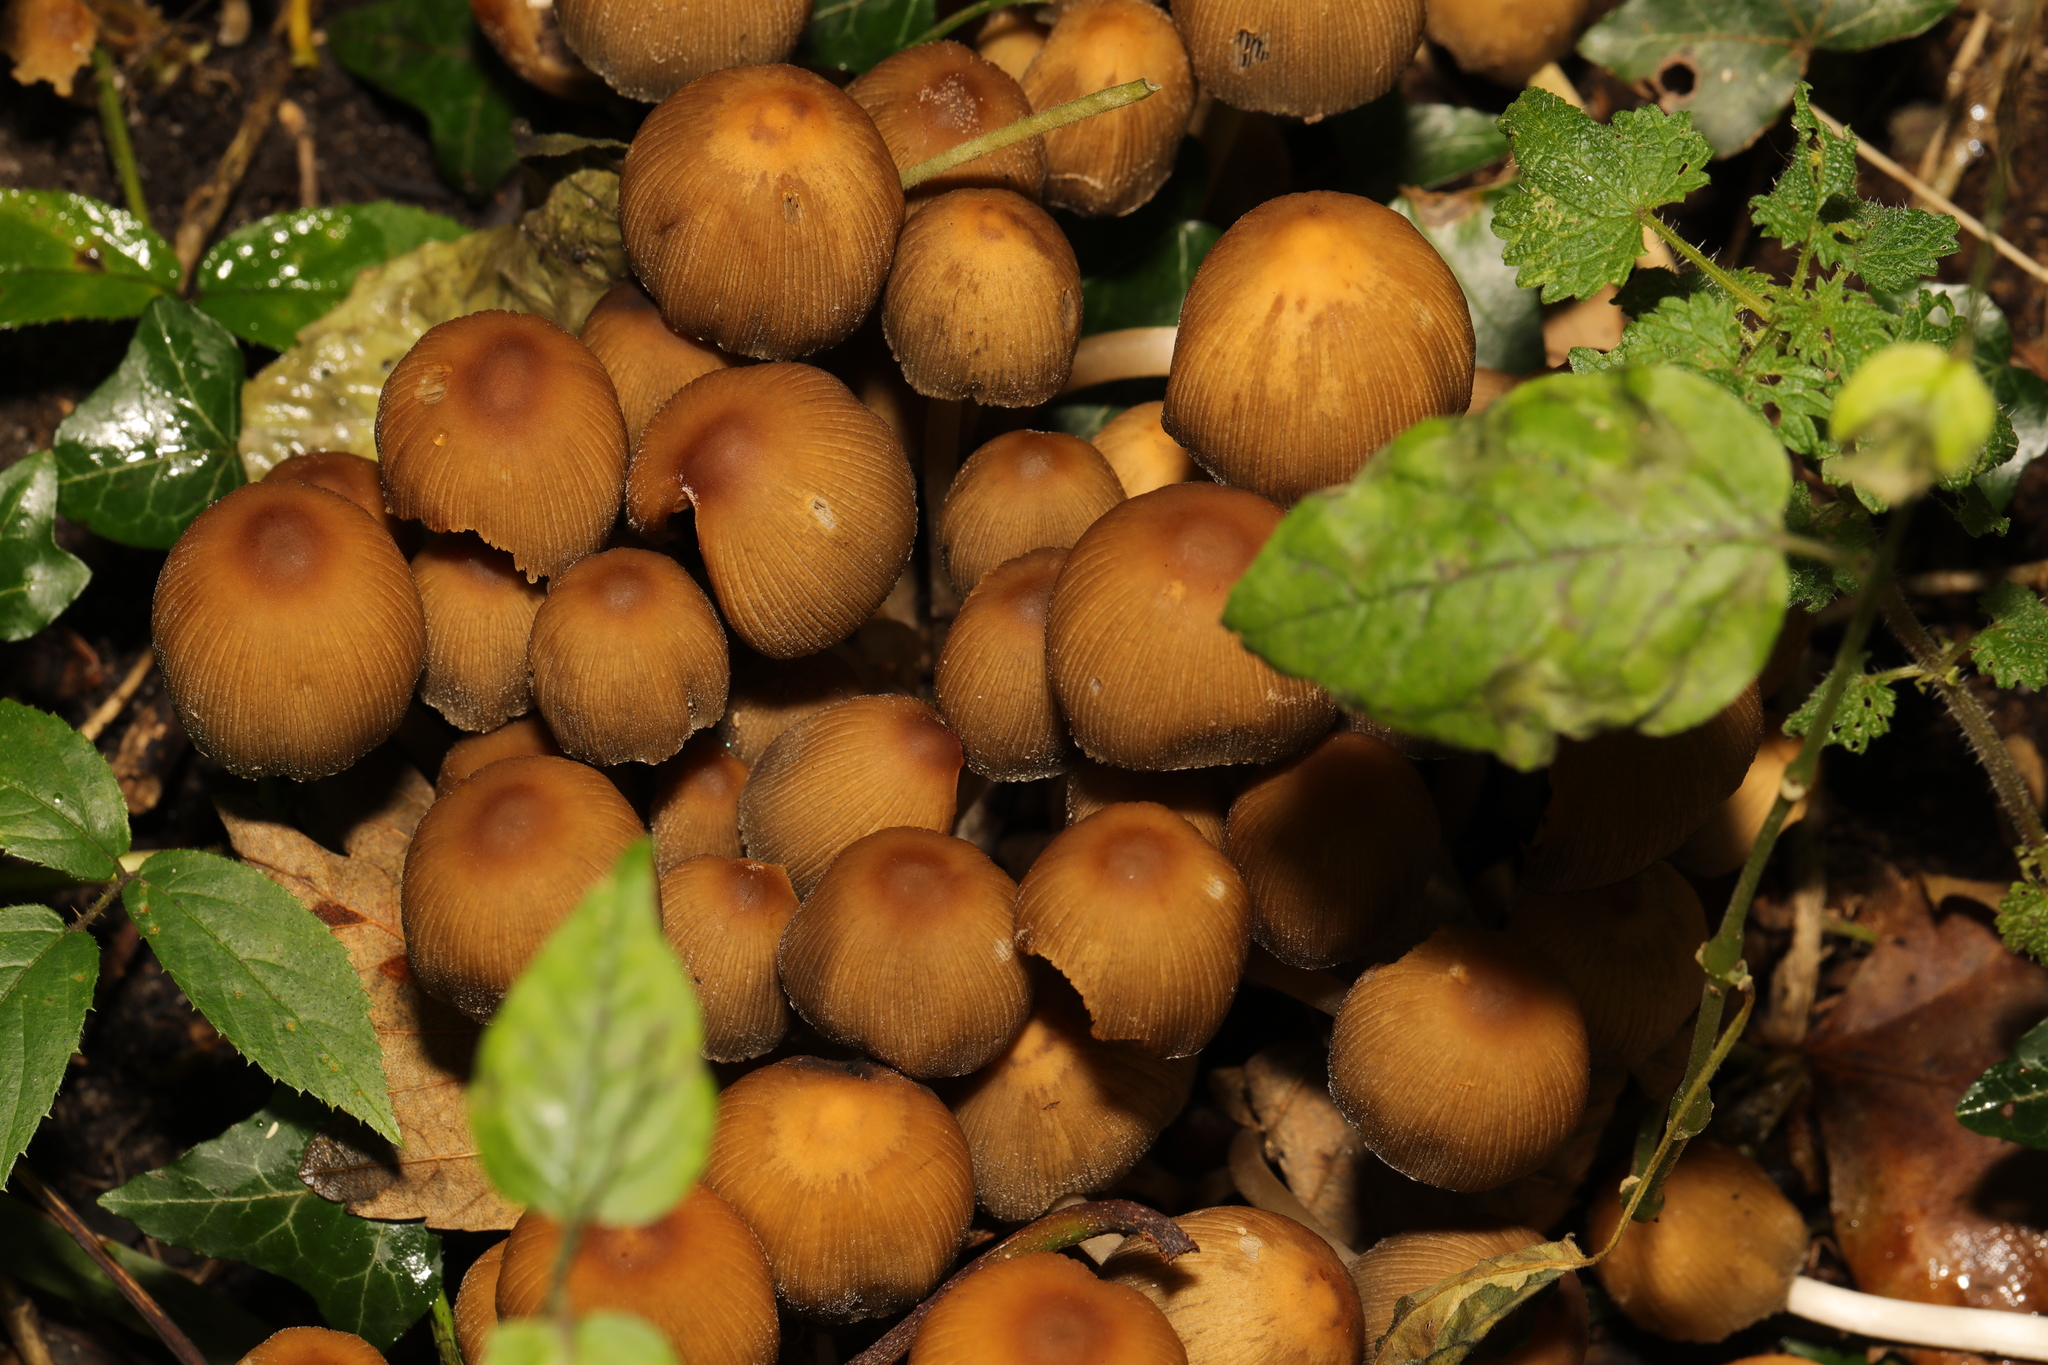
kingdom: Fungi
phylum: Basidiomycota
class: Agaricomycetes
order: Agaricales
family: Psathyrellaceae
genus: Coprinellus
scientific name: Coprinellus micaceus
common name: Glistening ink-cap
